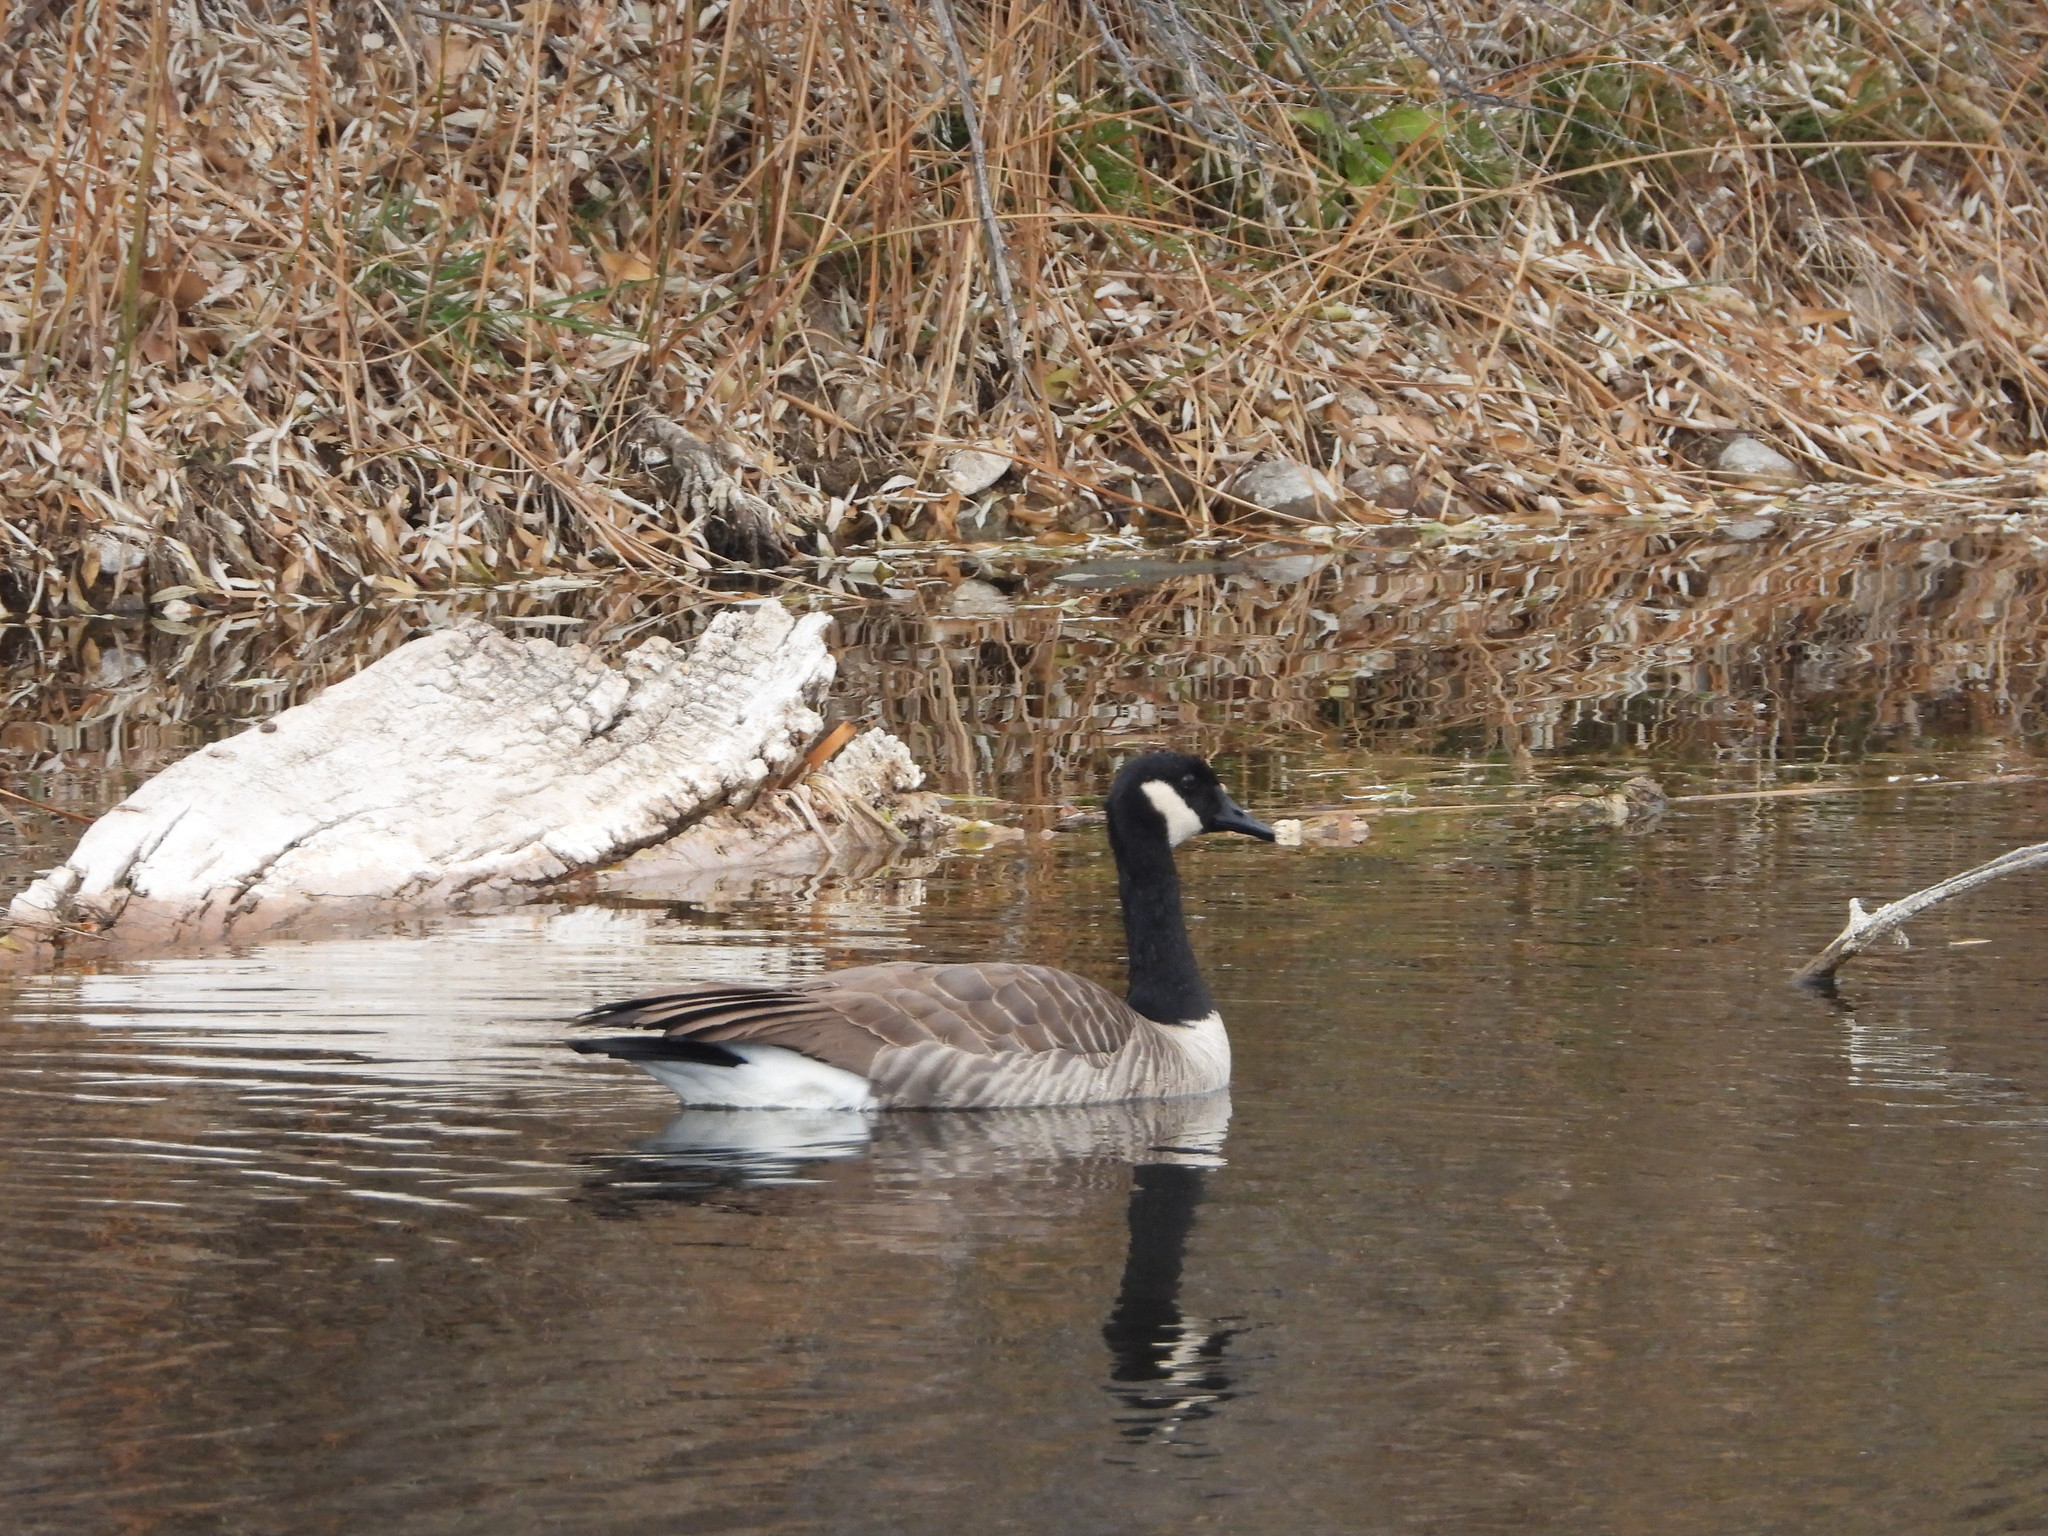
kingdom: Animalia
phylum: Chordata
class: Aves
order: Anseriformes
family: Anatidae
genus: Branta
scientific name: Branta canadensis
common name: Canada goose
